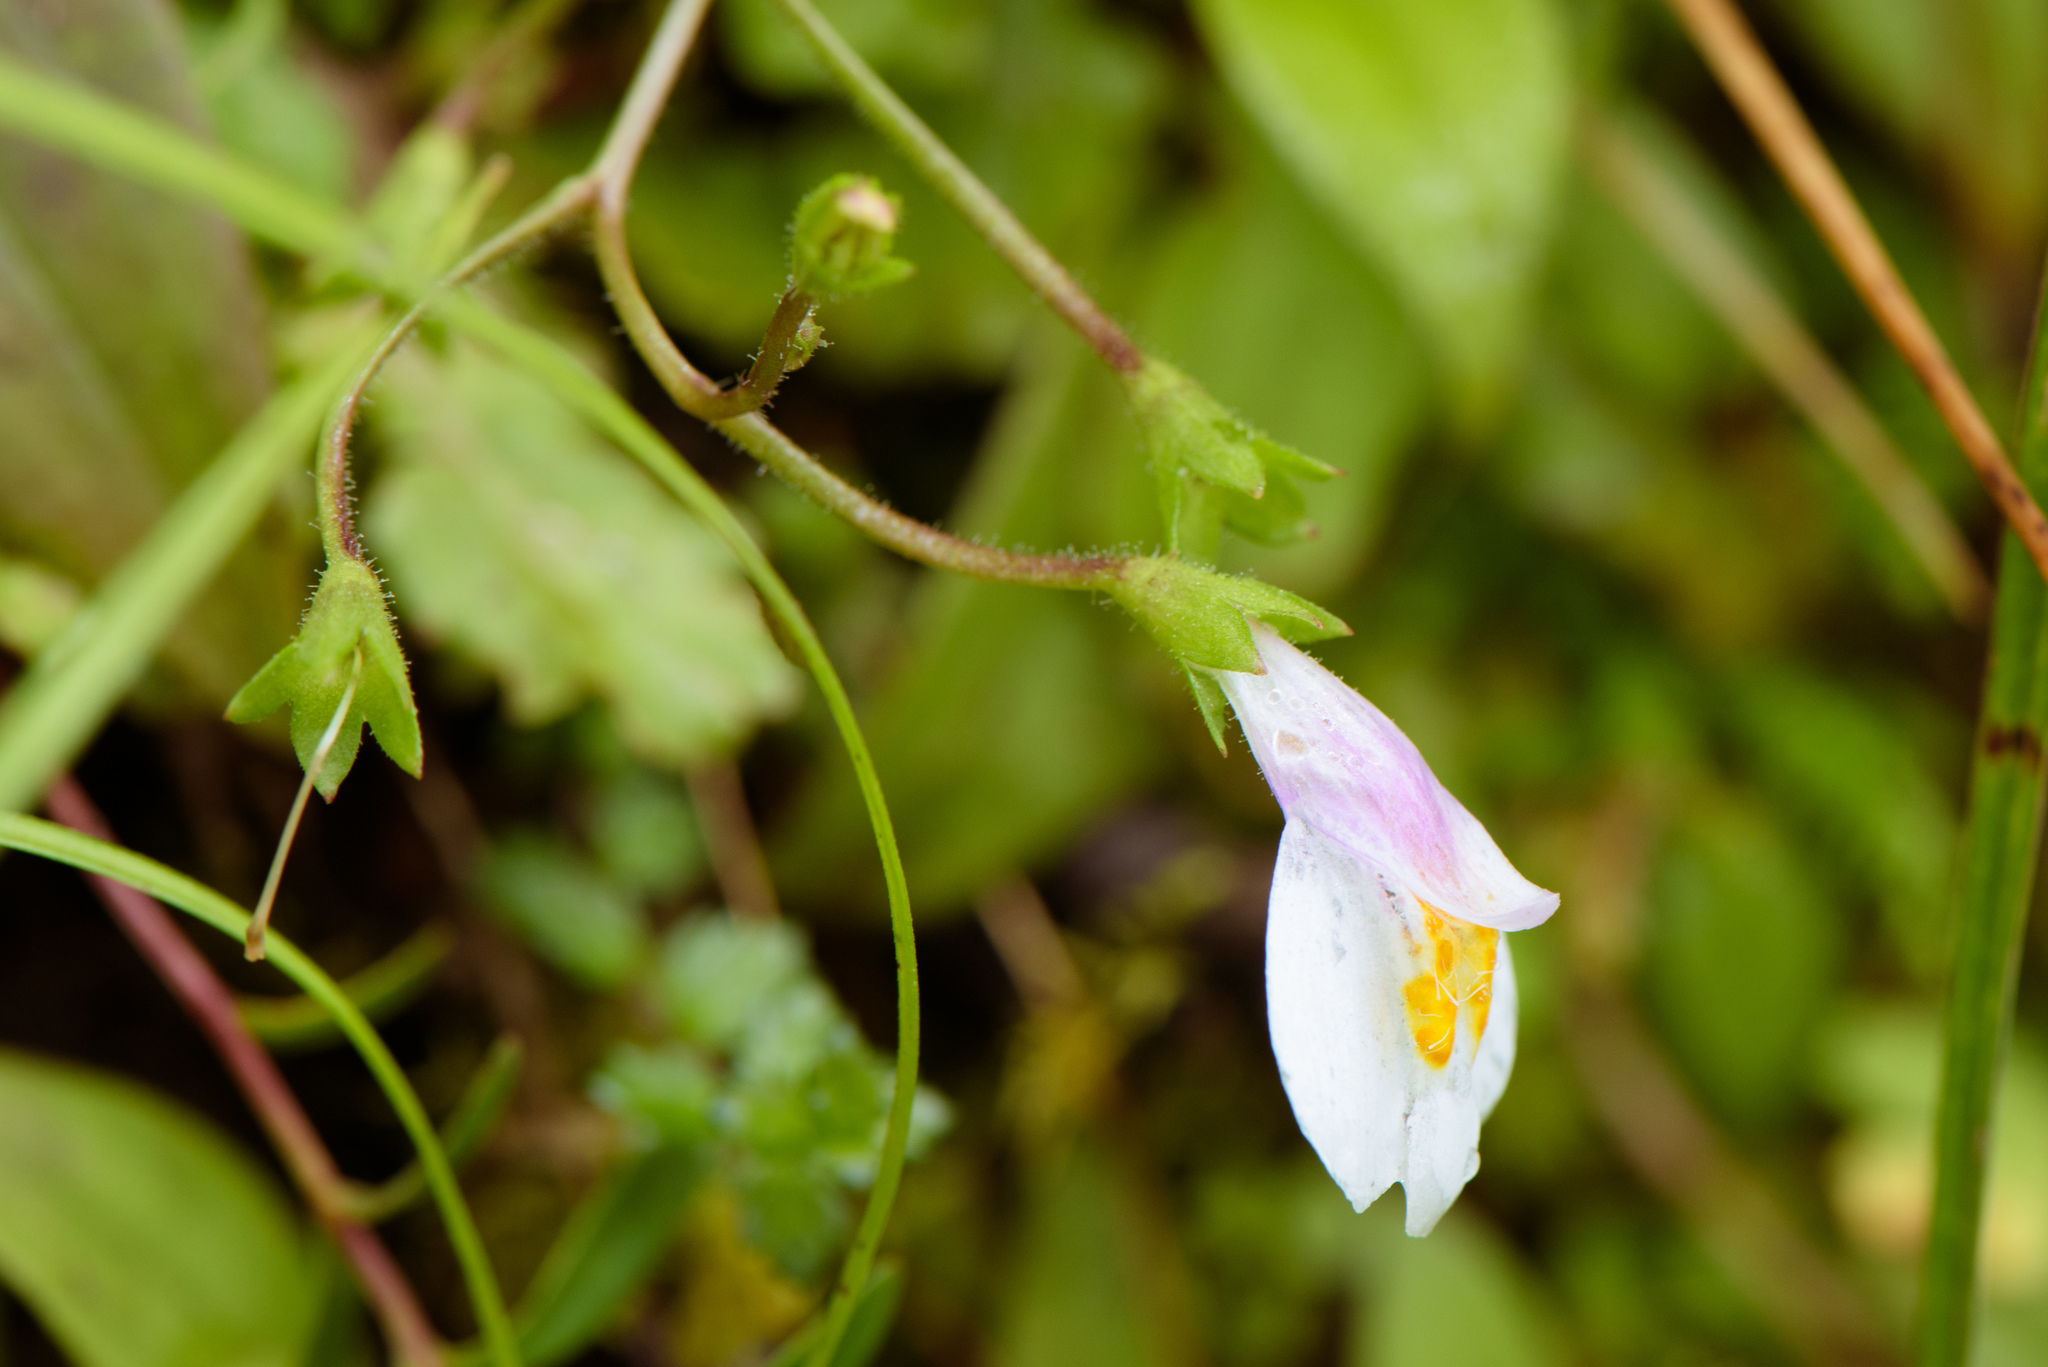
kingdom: Plantae
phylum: Tracheophyta
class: Magnoliopsida
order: Lamiales
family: Mazaceae
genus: Mazus
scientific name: Mazus alpinus
